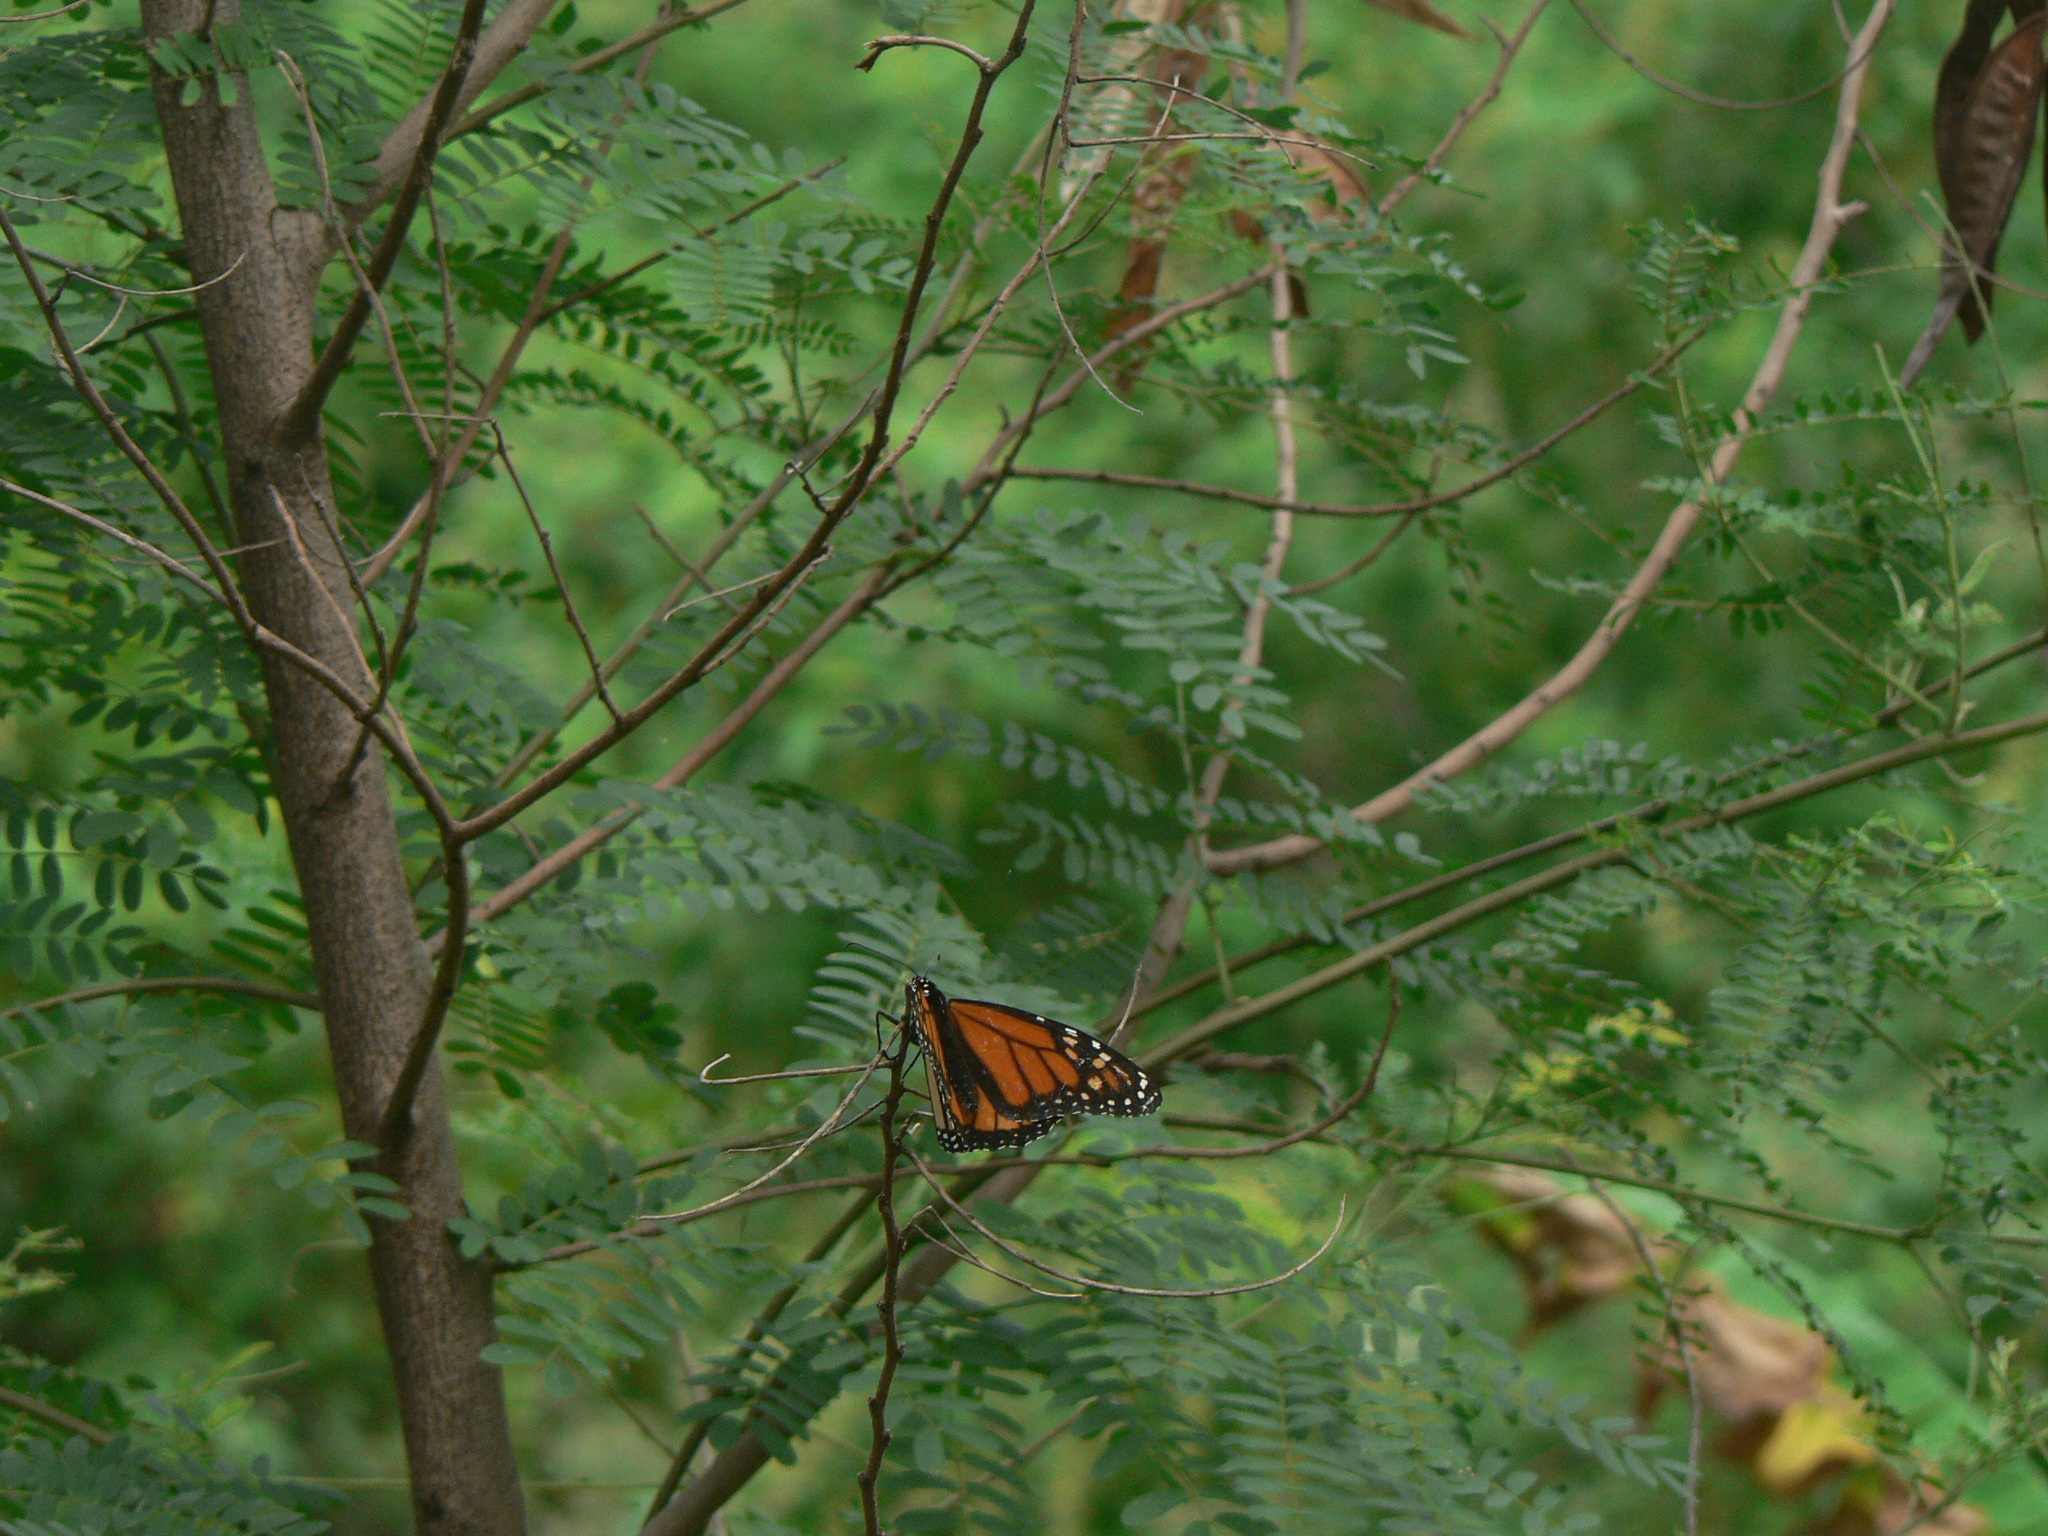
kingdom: Animalia
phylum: Arthropoda
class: Insecta
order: Lepidoptera
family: Nymphalidae
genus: Danaus
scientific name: Danaus plexippus
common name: Monarch
